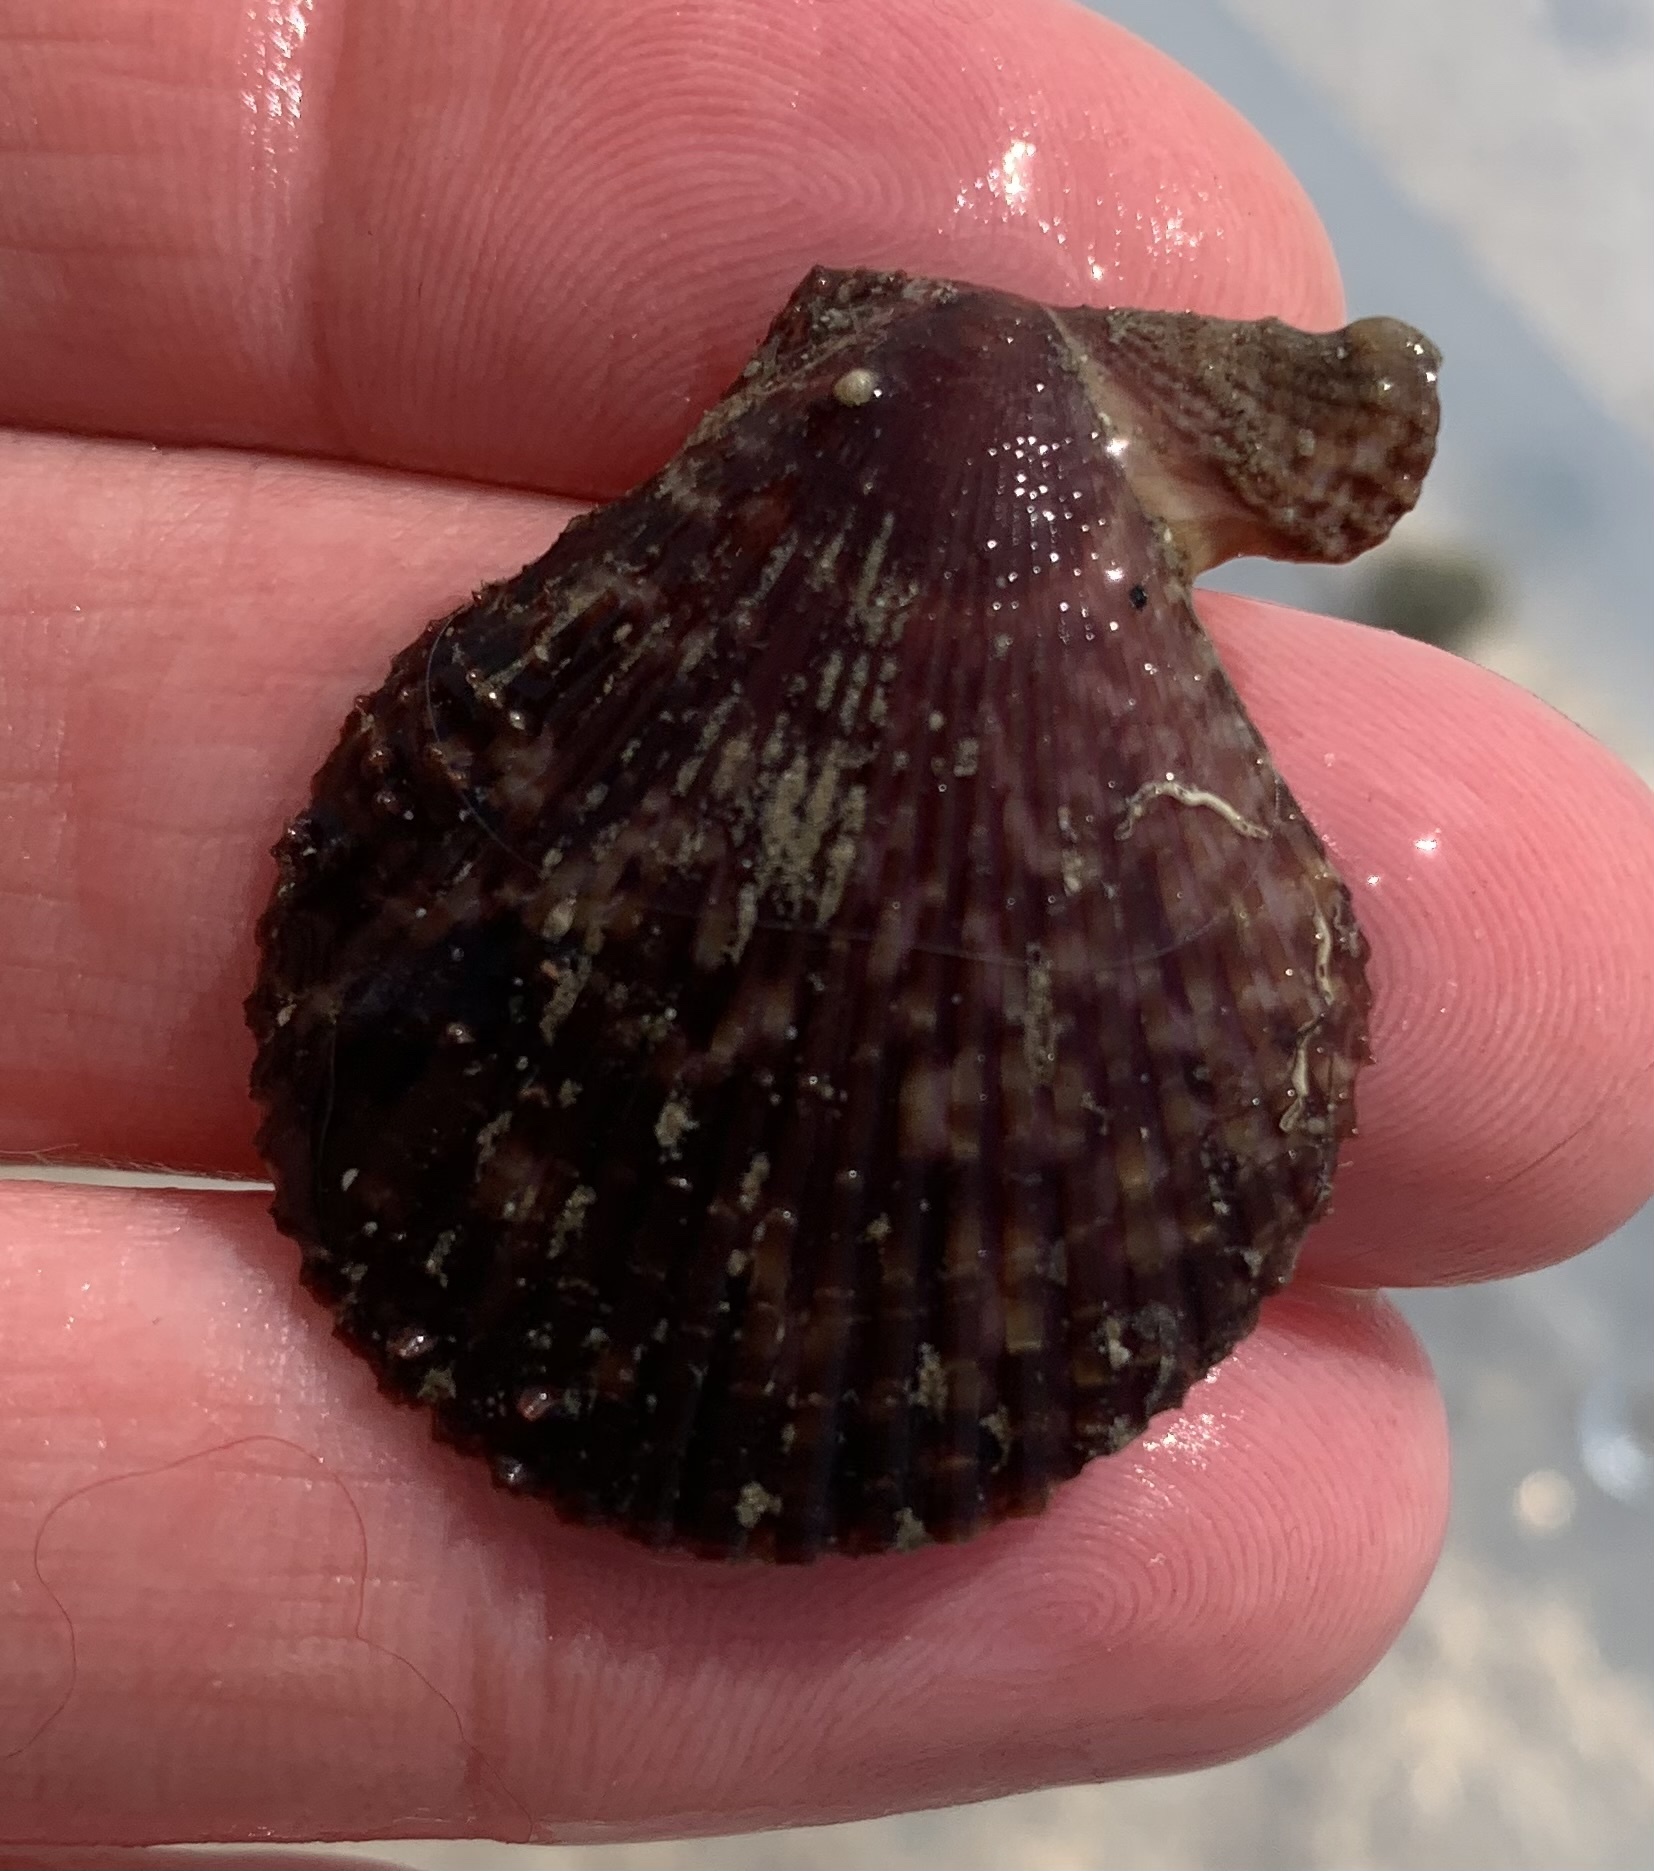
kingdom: Animalia
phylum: Mollusca
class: Bivalvia
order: Pectinida
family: Pectinidae
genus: Mimachlamys
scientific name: Mimachlamys varia
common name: Variegated scallop
